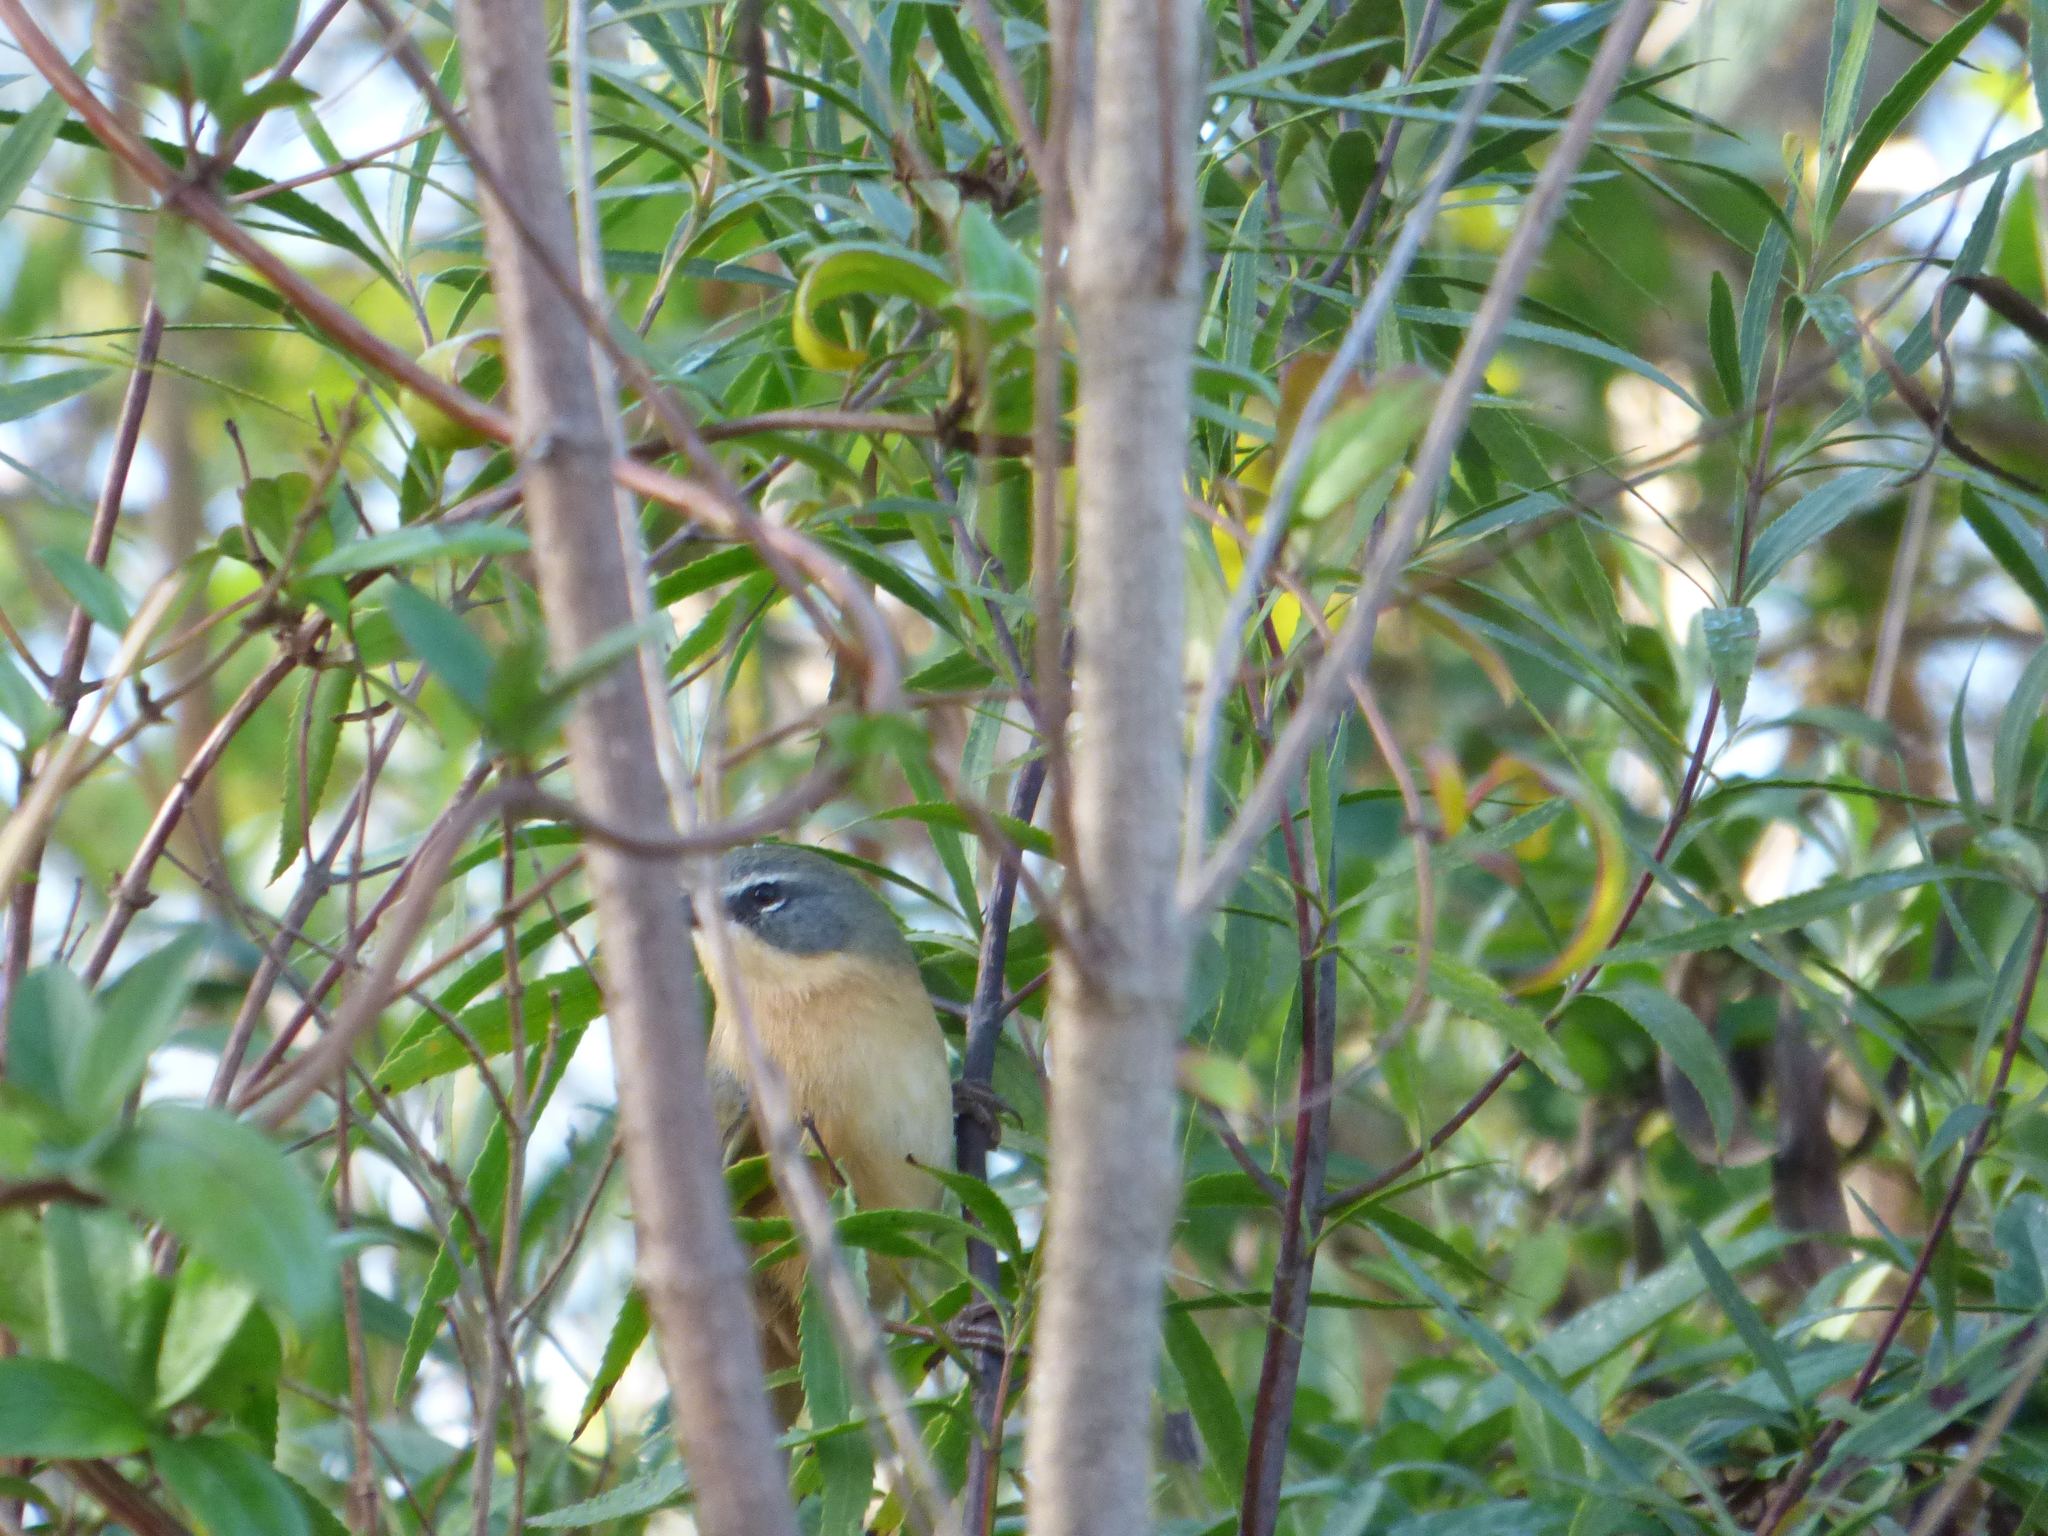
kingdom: Animalia
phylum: Chordata
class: Aves
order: Passeriformes
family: Thraupidae
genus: Donacospiza
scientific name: Donacospiza albifrons
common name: Long-tailed reed finch
